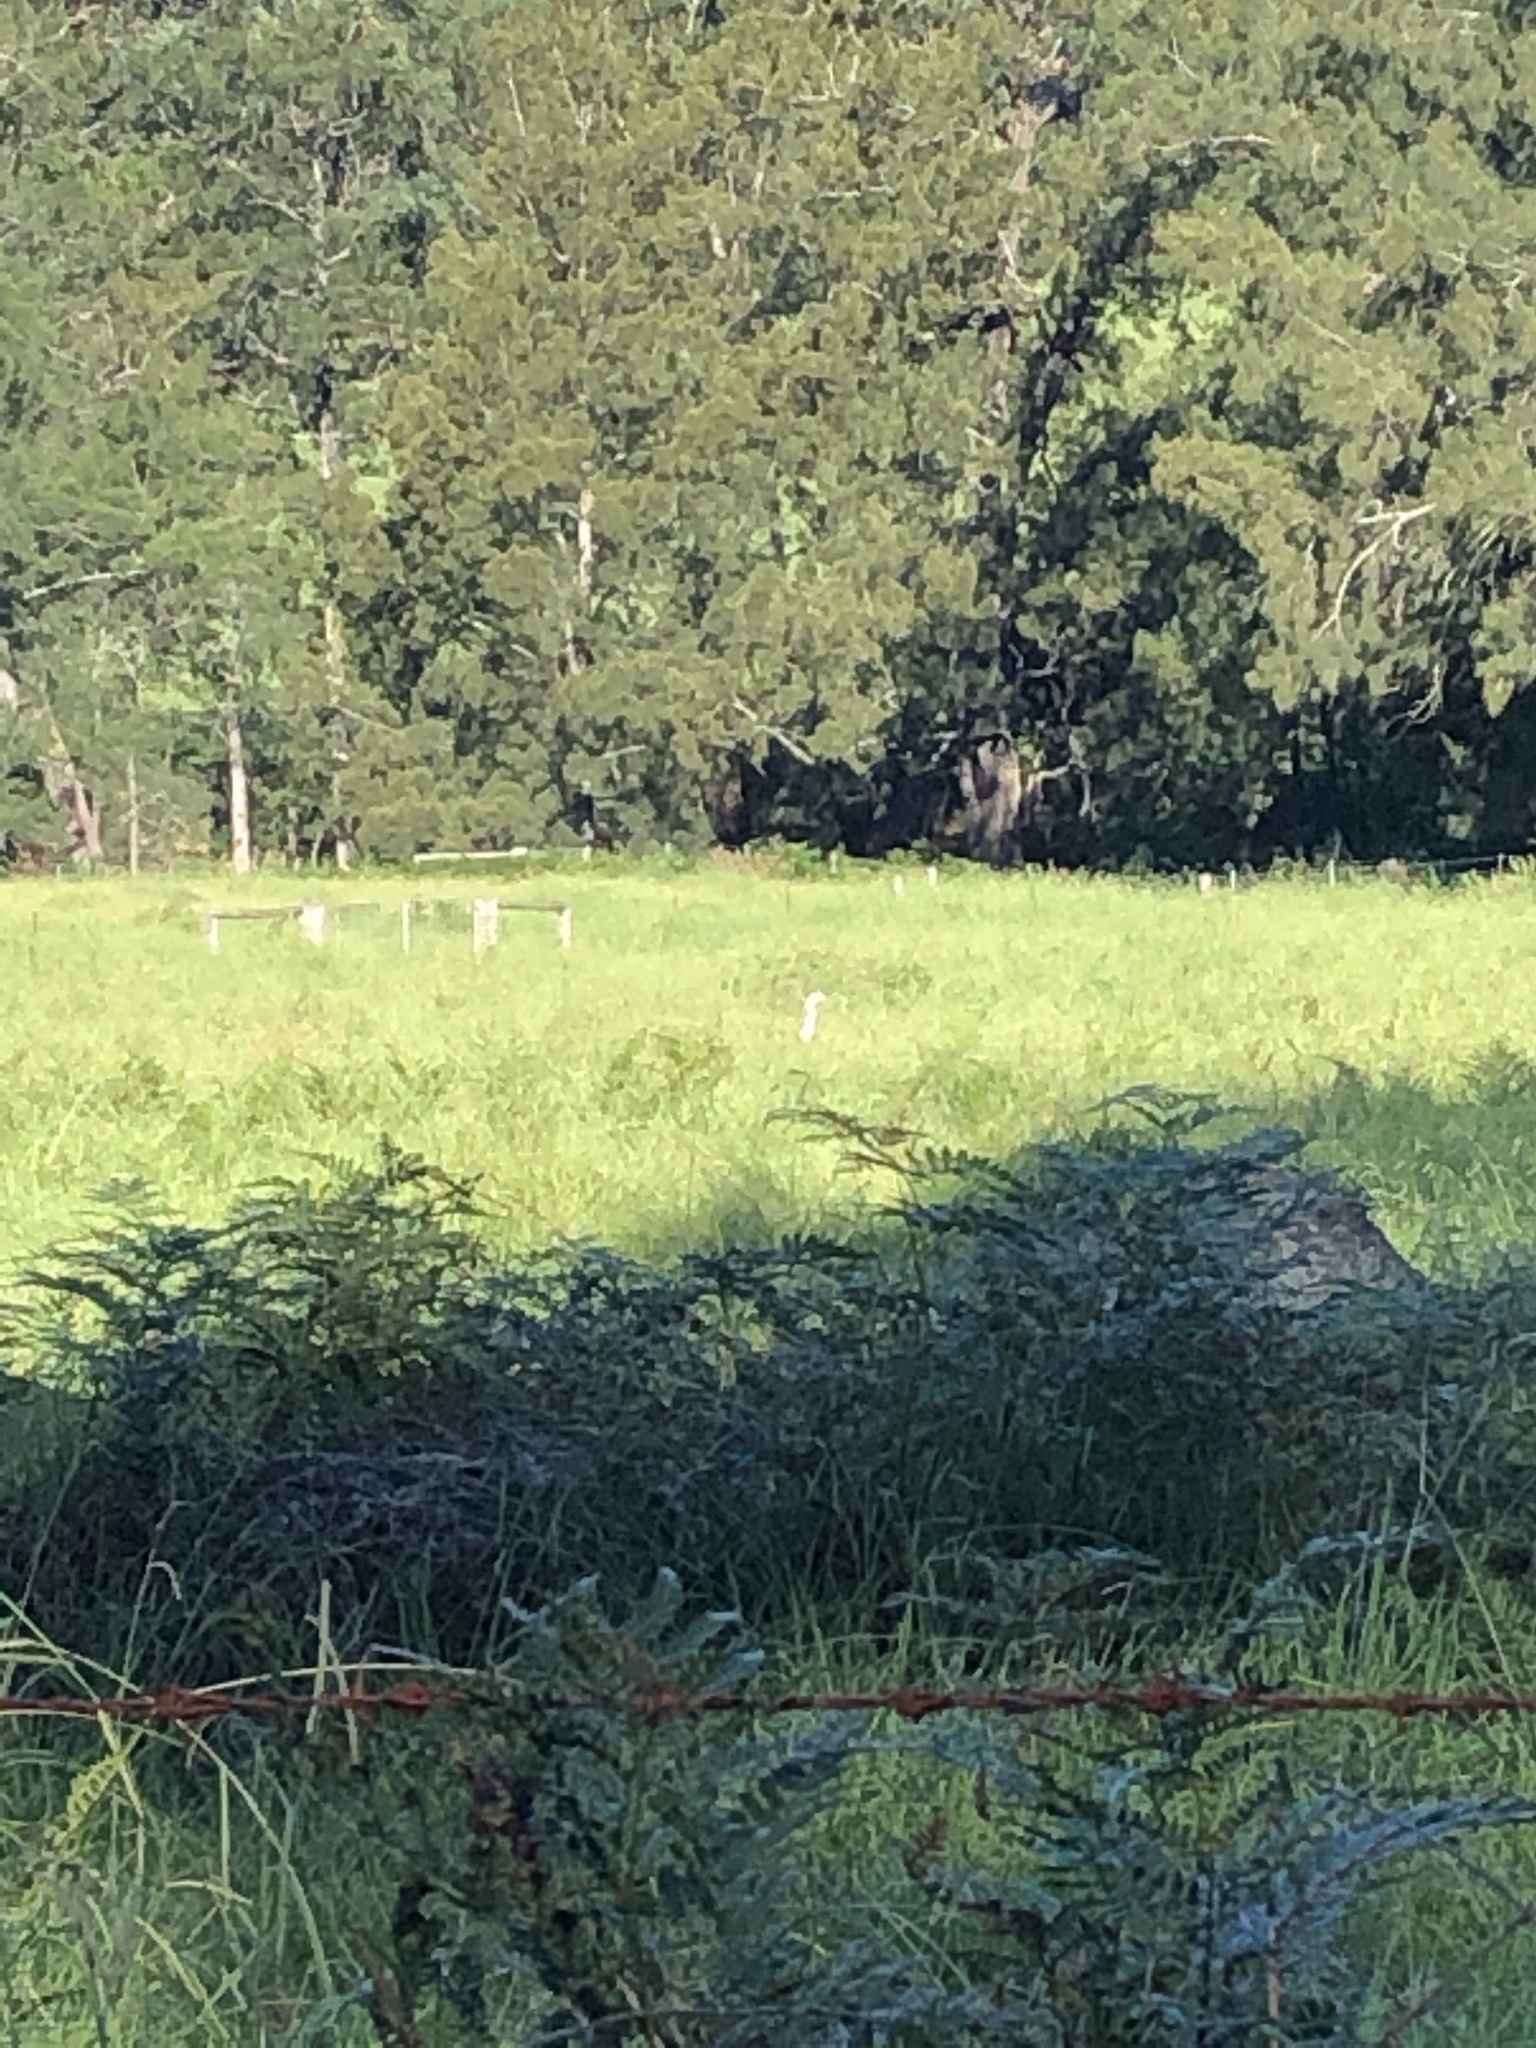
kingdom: Animalia
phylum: Chordata
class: Aves
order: Pelecaniformes
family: Ardeidae
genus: Ardea
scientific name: Ardea pacifica
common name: White-necked heron
